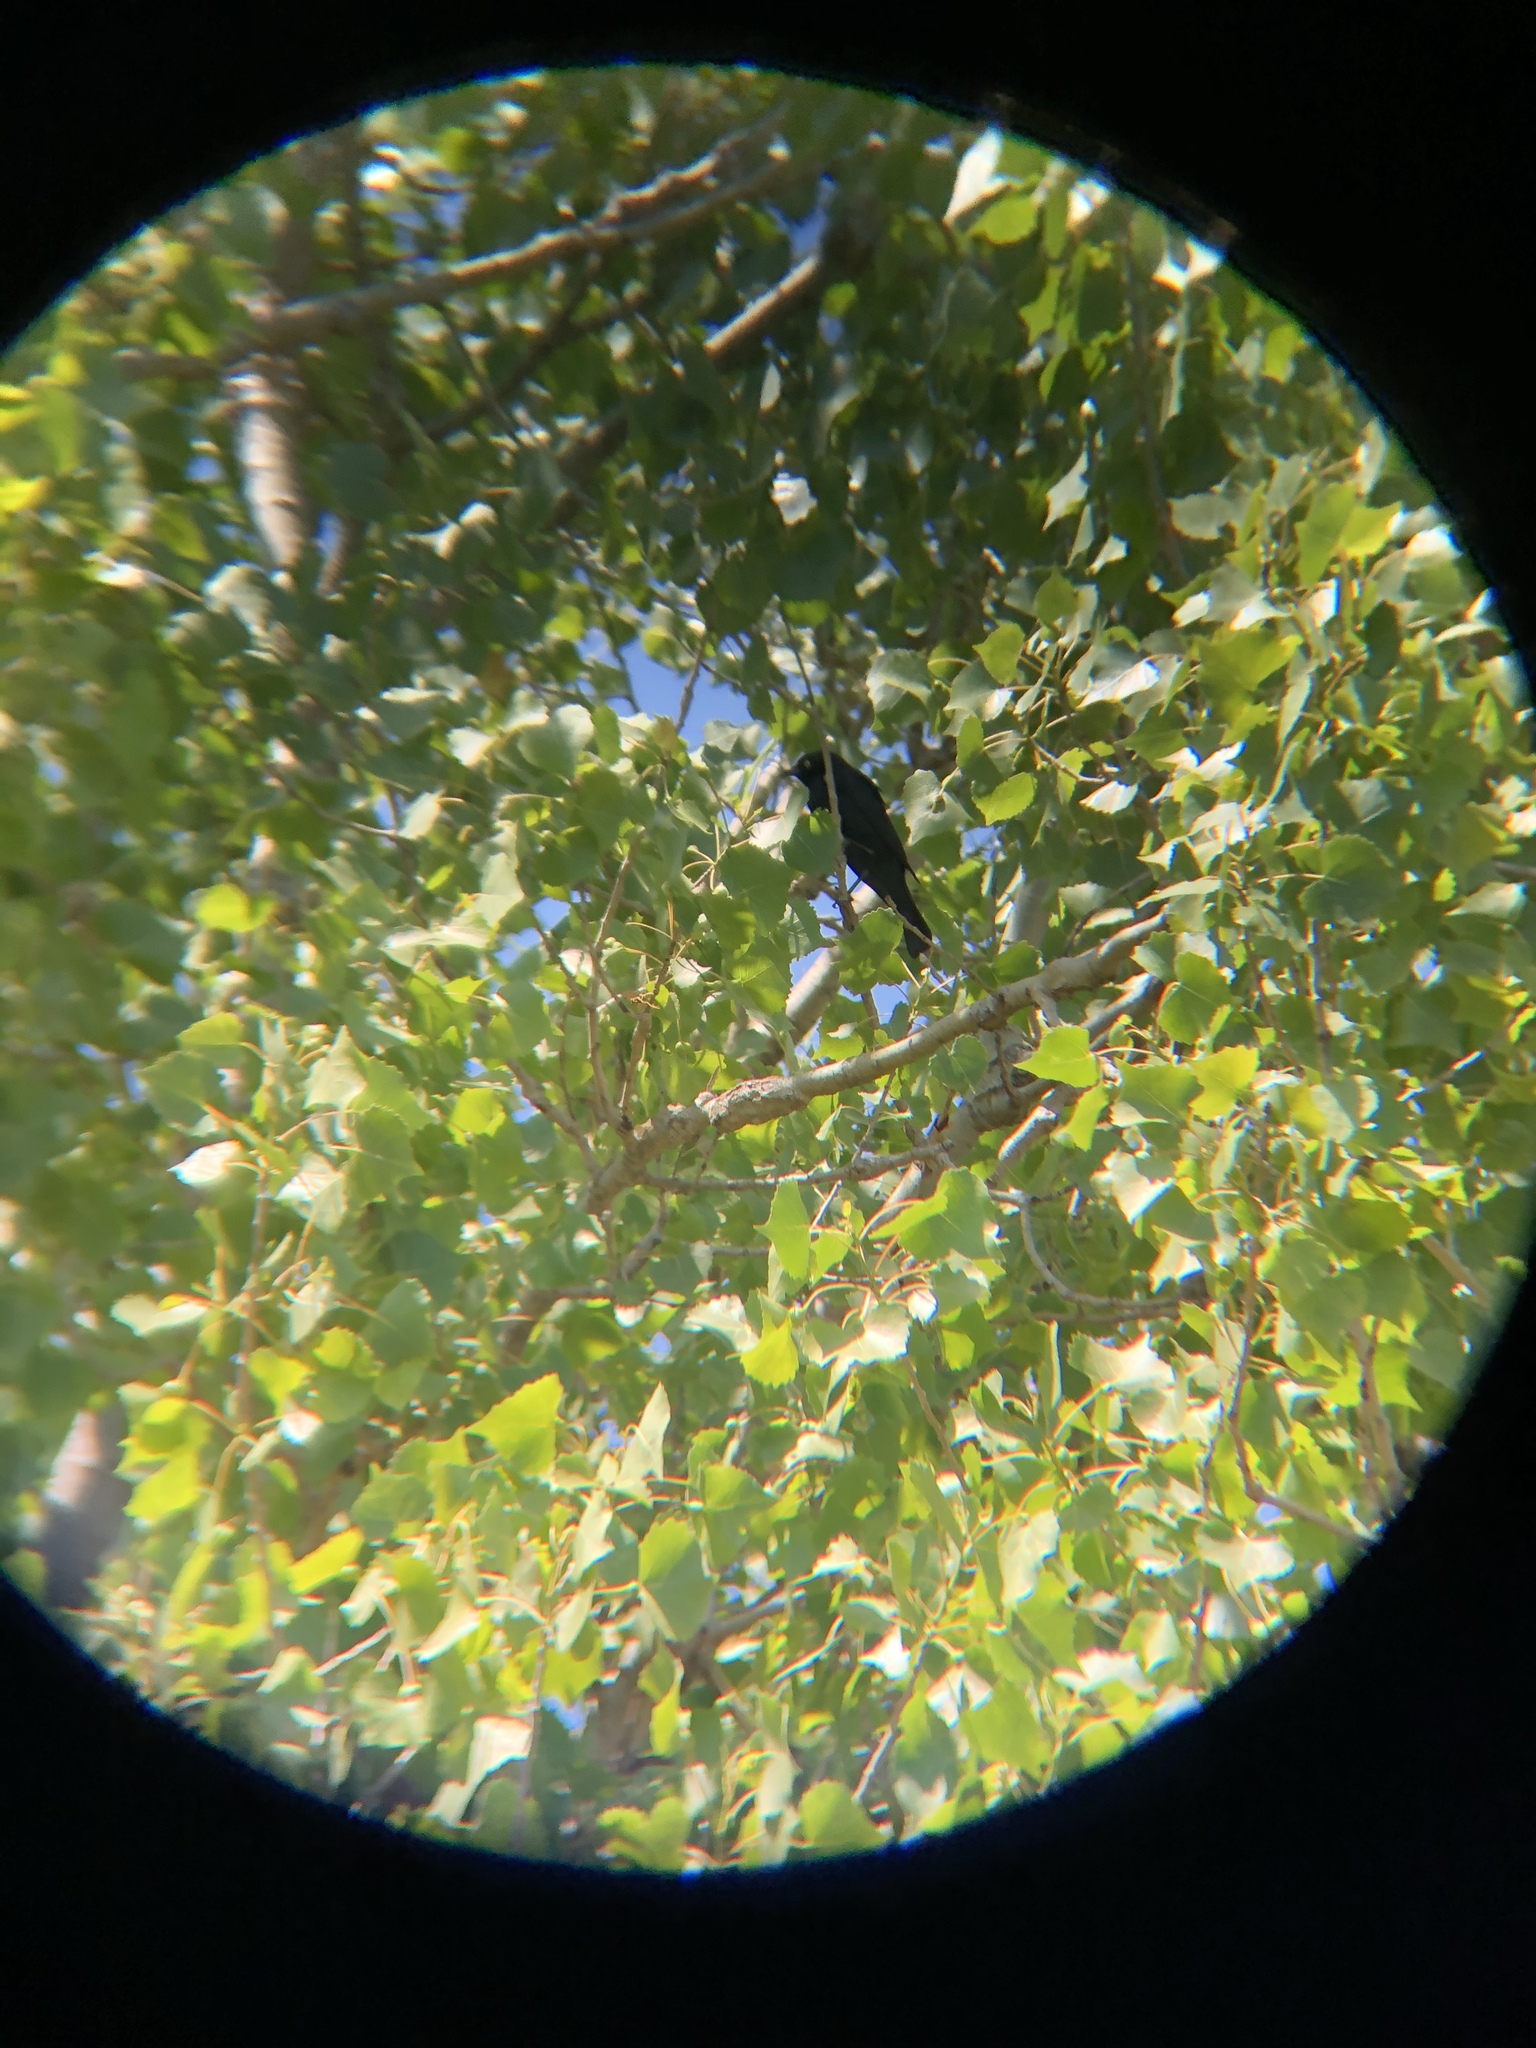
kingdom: Animalia
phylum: Chordata
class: Aves
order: Passeriformes
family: Icteridae
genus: Euphagus
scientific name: Euphagus cyanocephalus
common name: Brewer's blackbird
